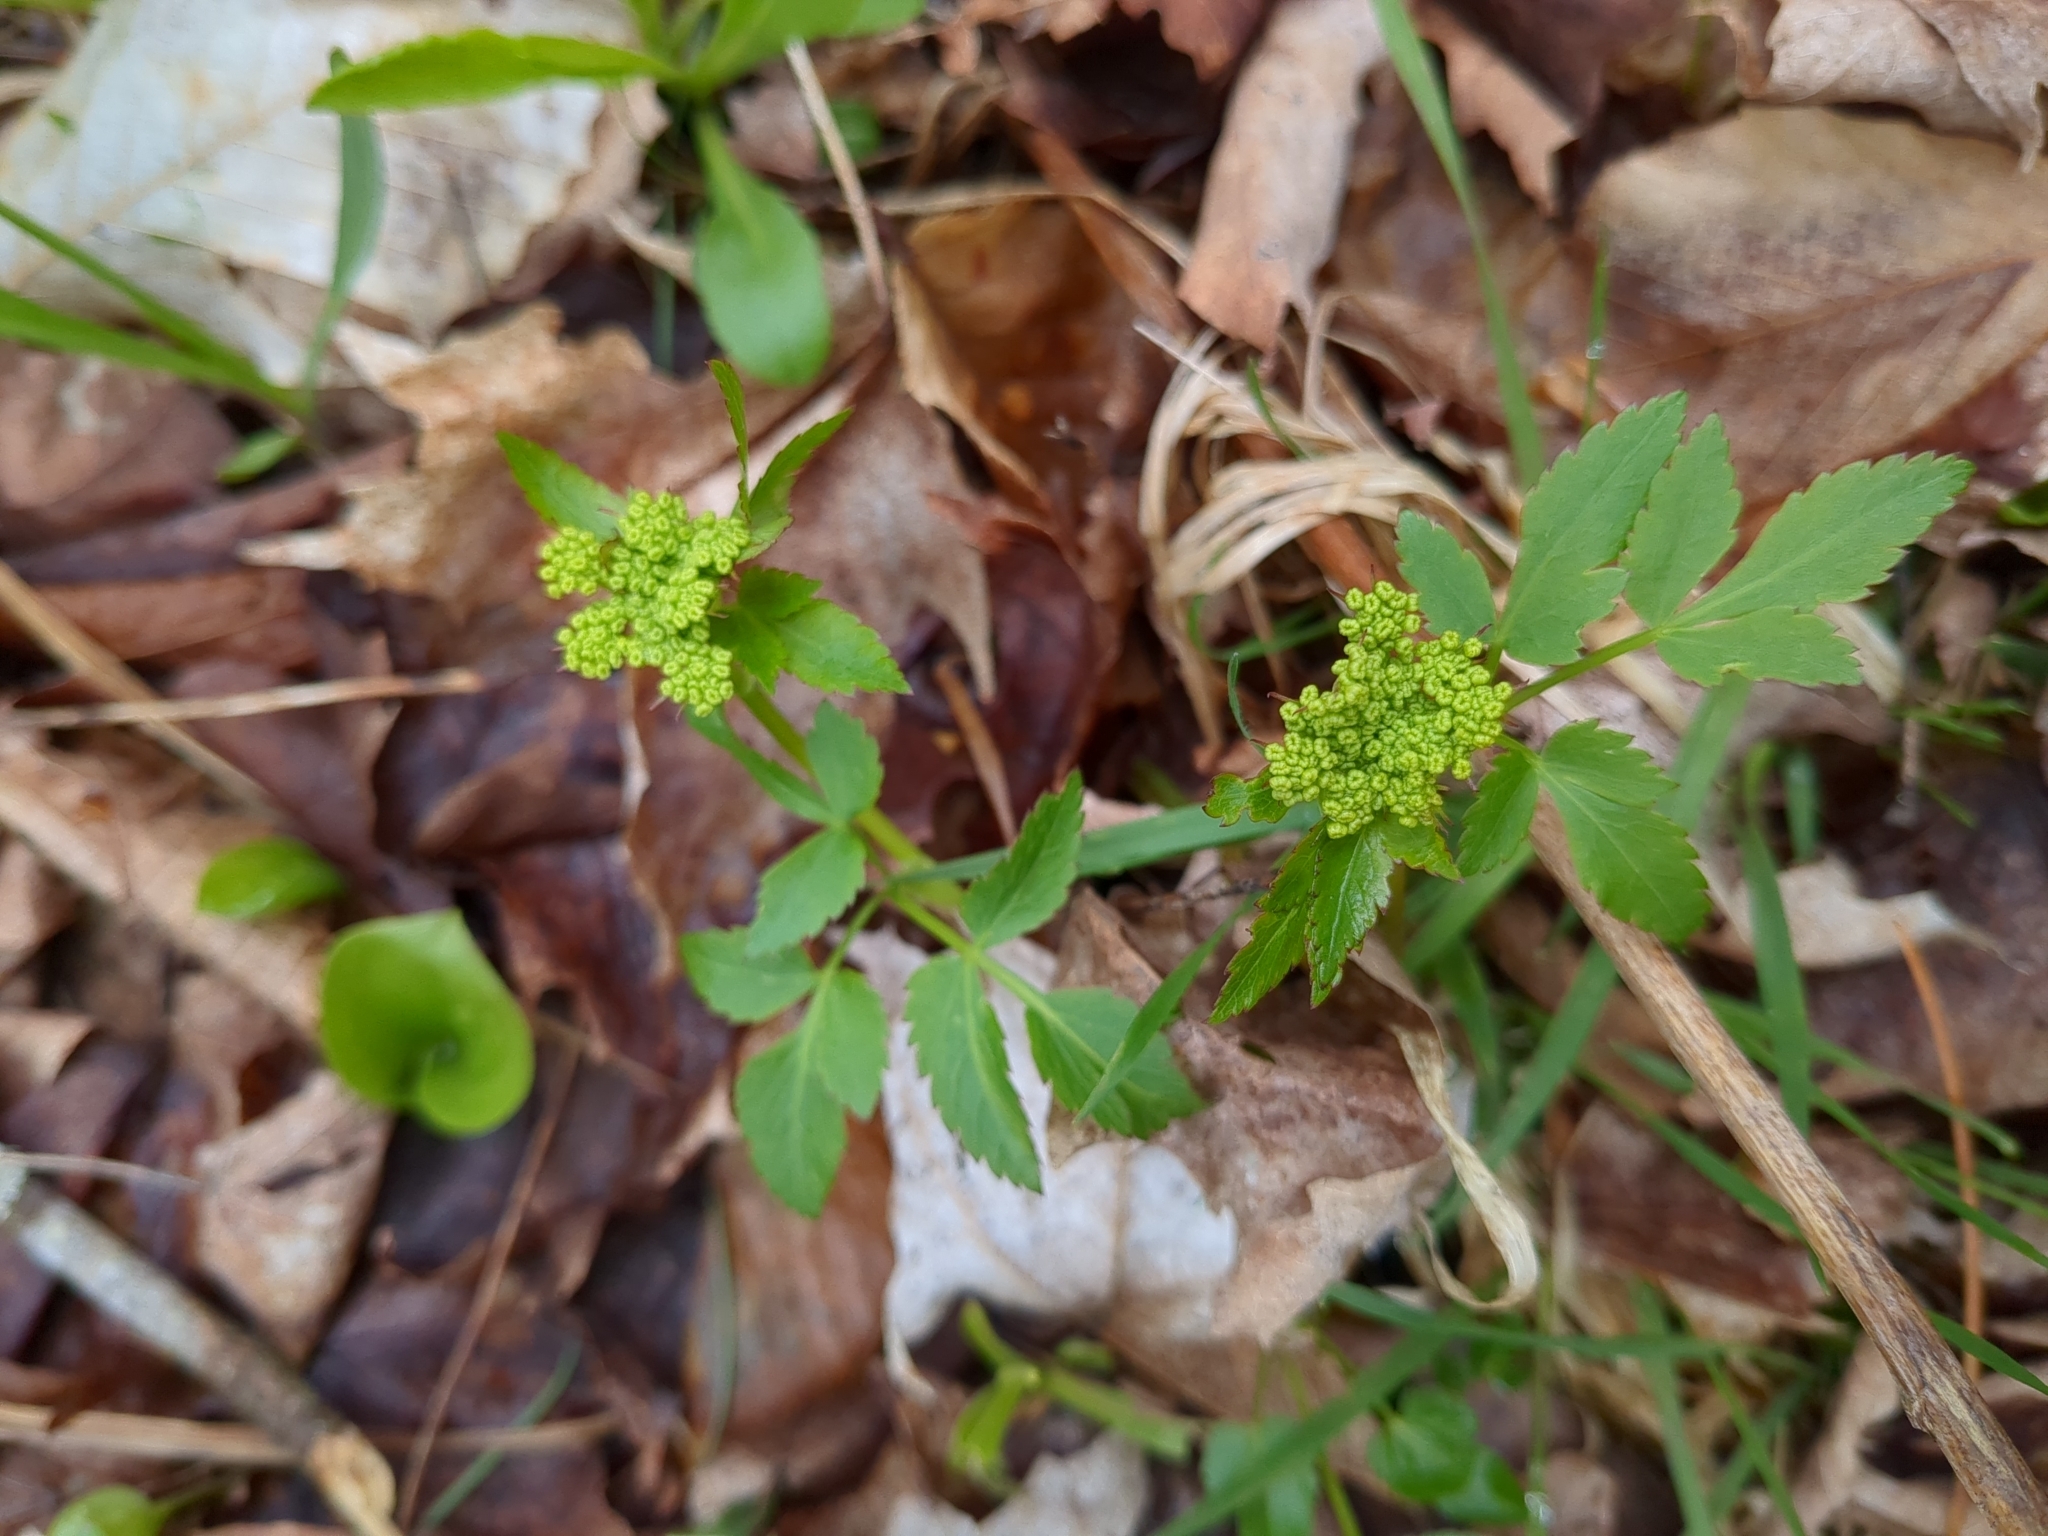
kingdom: Plantae
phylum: Tracheophyta
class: Magnoliopsida
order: Apiales
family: Apiaceae
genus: Zizia
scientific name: Zizia aurea
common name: Golden alexanders
